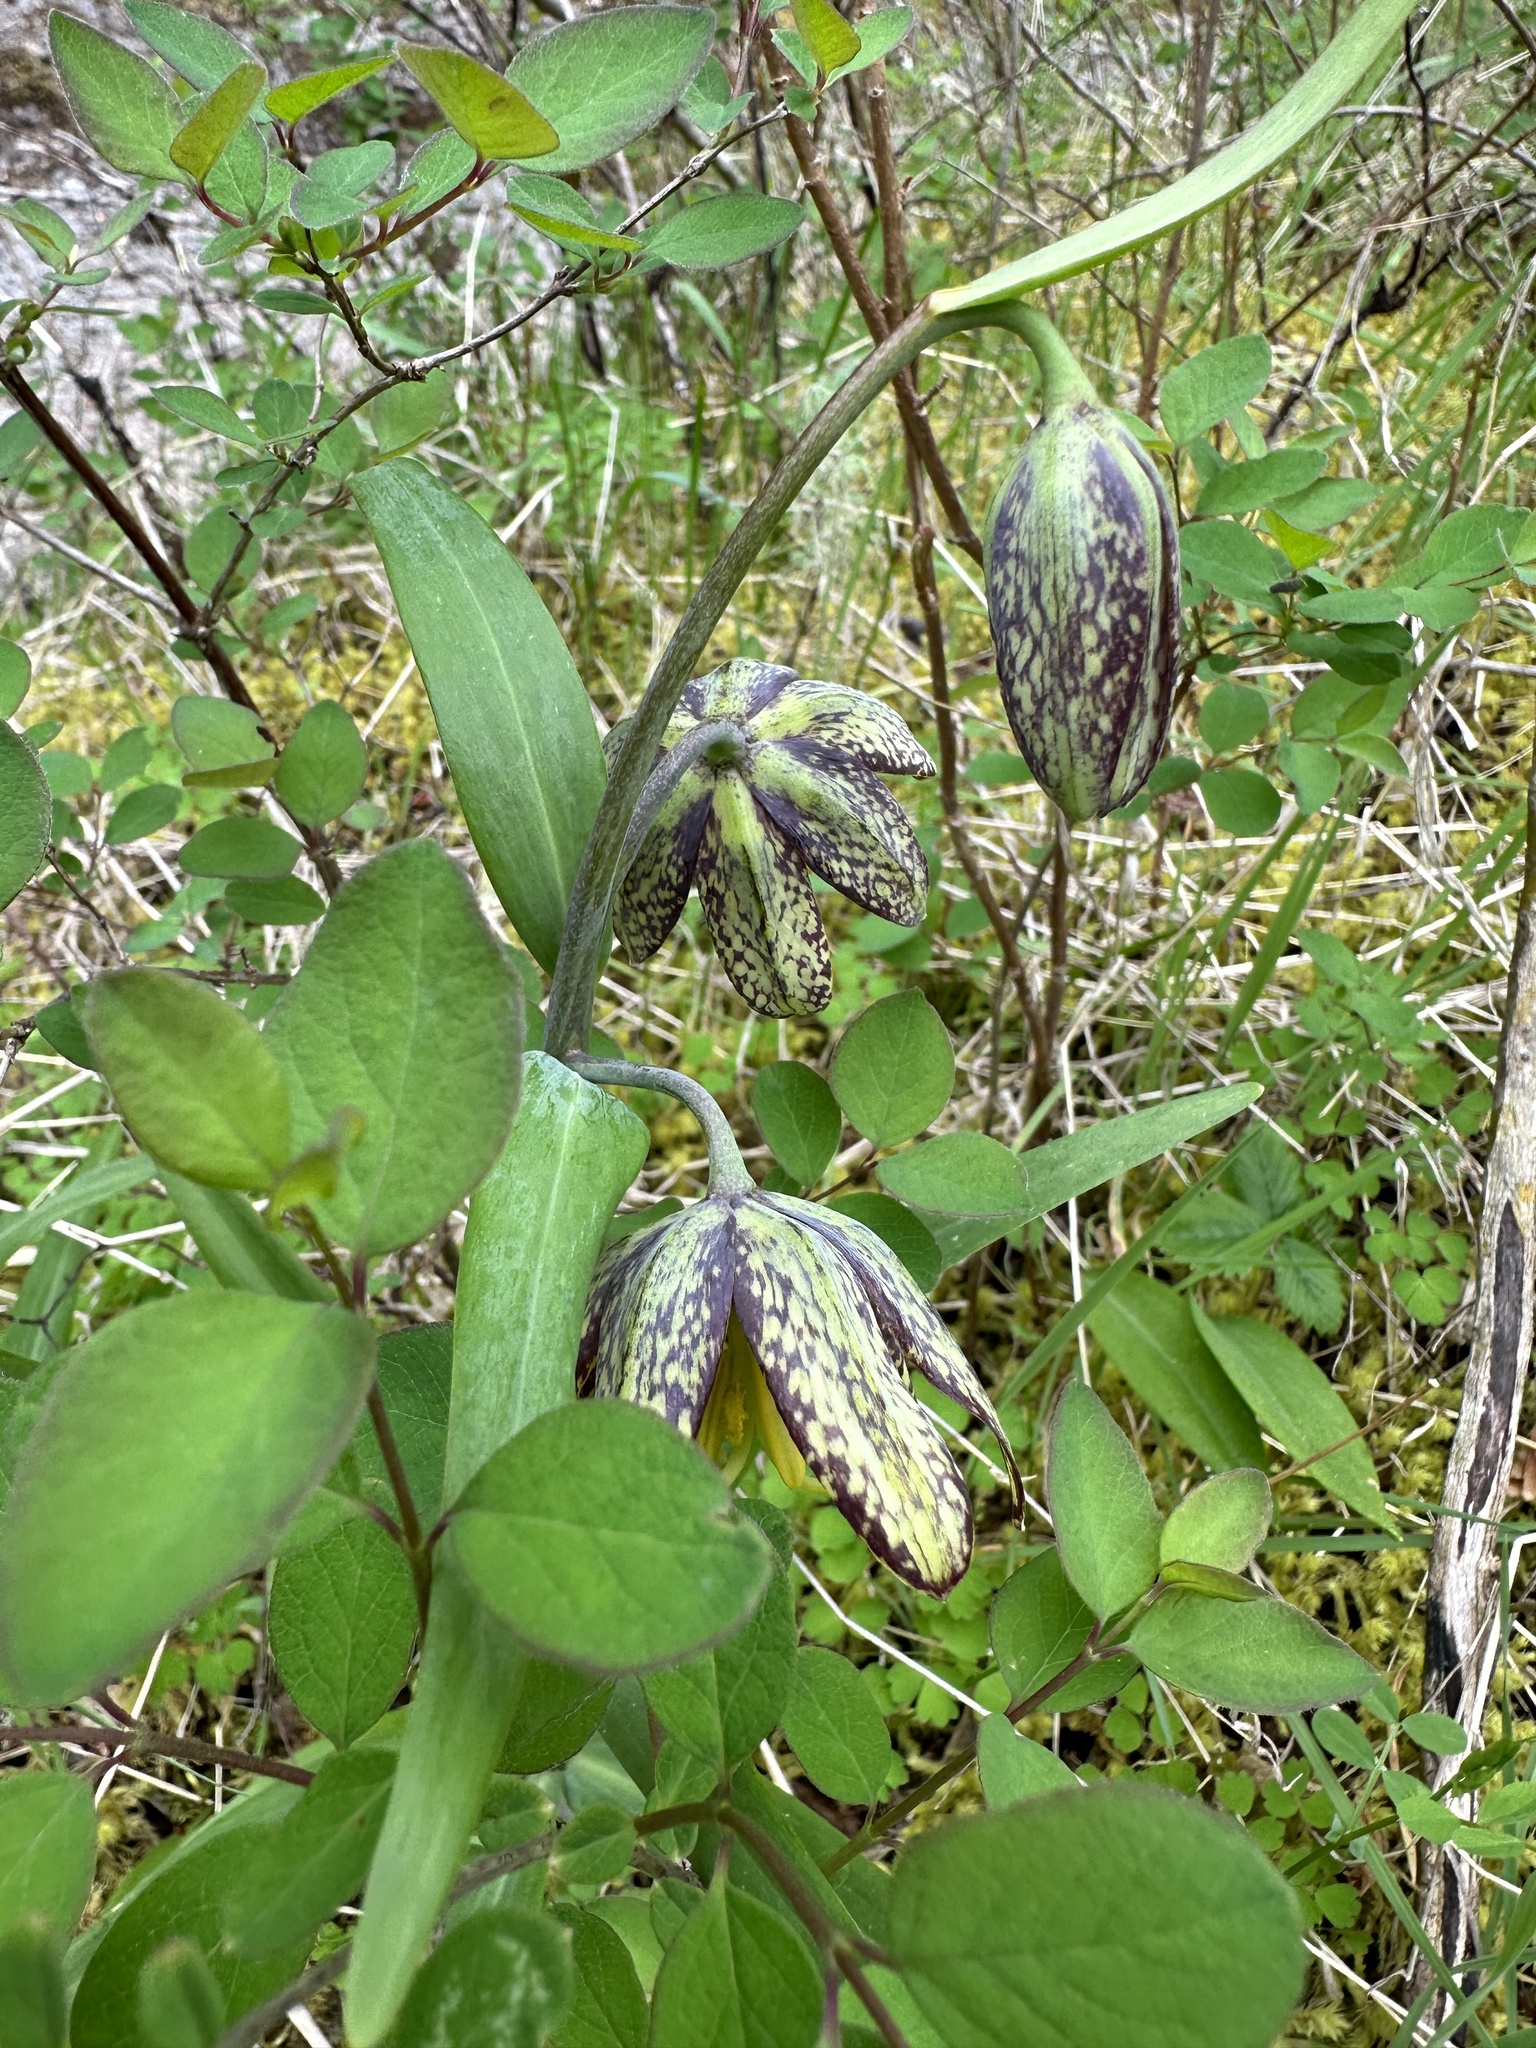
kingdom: Plantae
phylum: Tracheophyta
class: Liliopsida
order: Liliales
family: Liliaceae
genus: Fritillaria
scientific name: Fritillaria affinis
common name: Ojai fritillary
